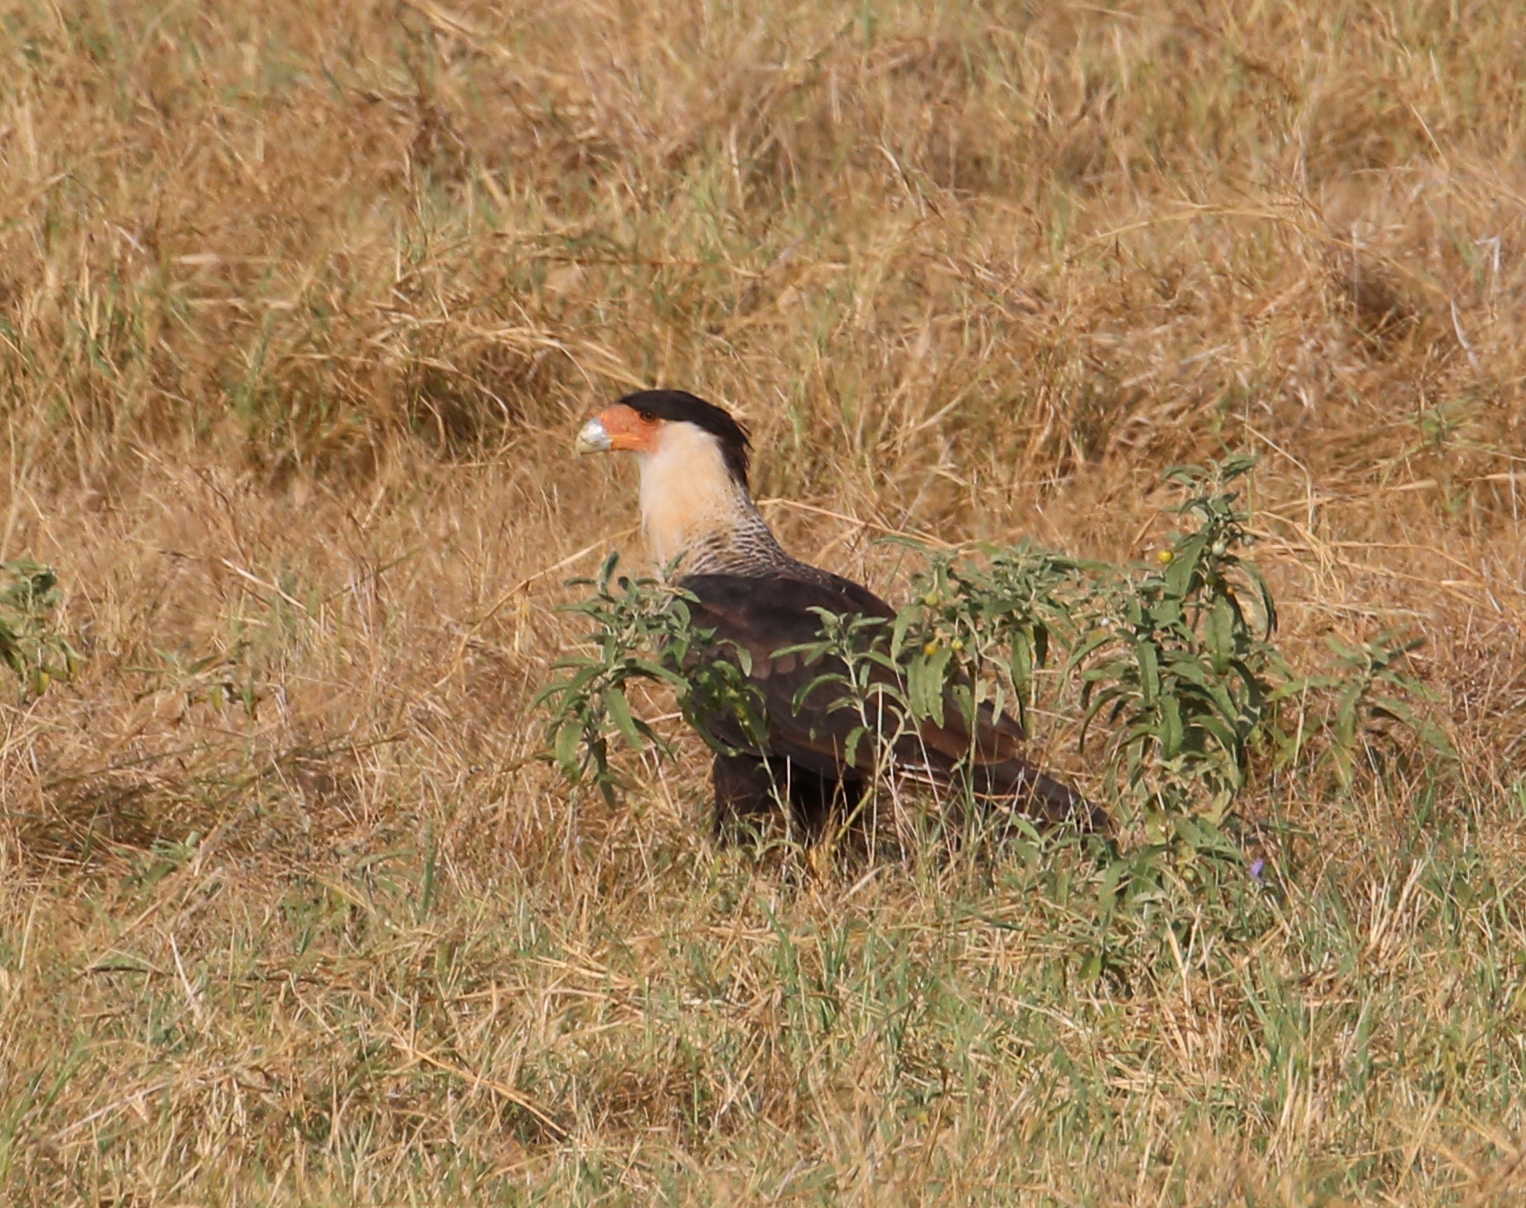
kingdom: Animalia
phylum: Chordata
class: Aves
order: Falconiformes
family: Falconidae
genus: Caracara
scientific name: Caracara plancus
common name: Southern caracara
